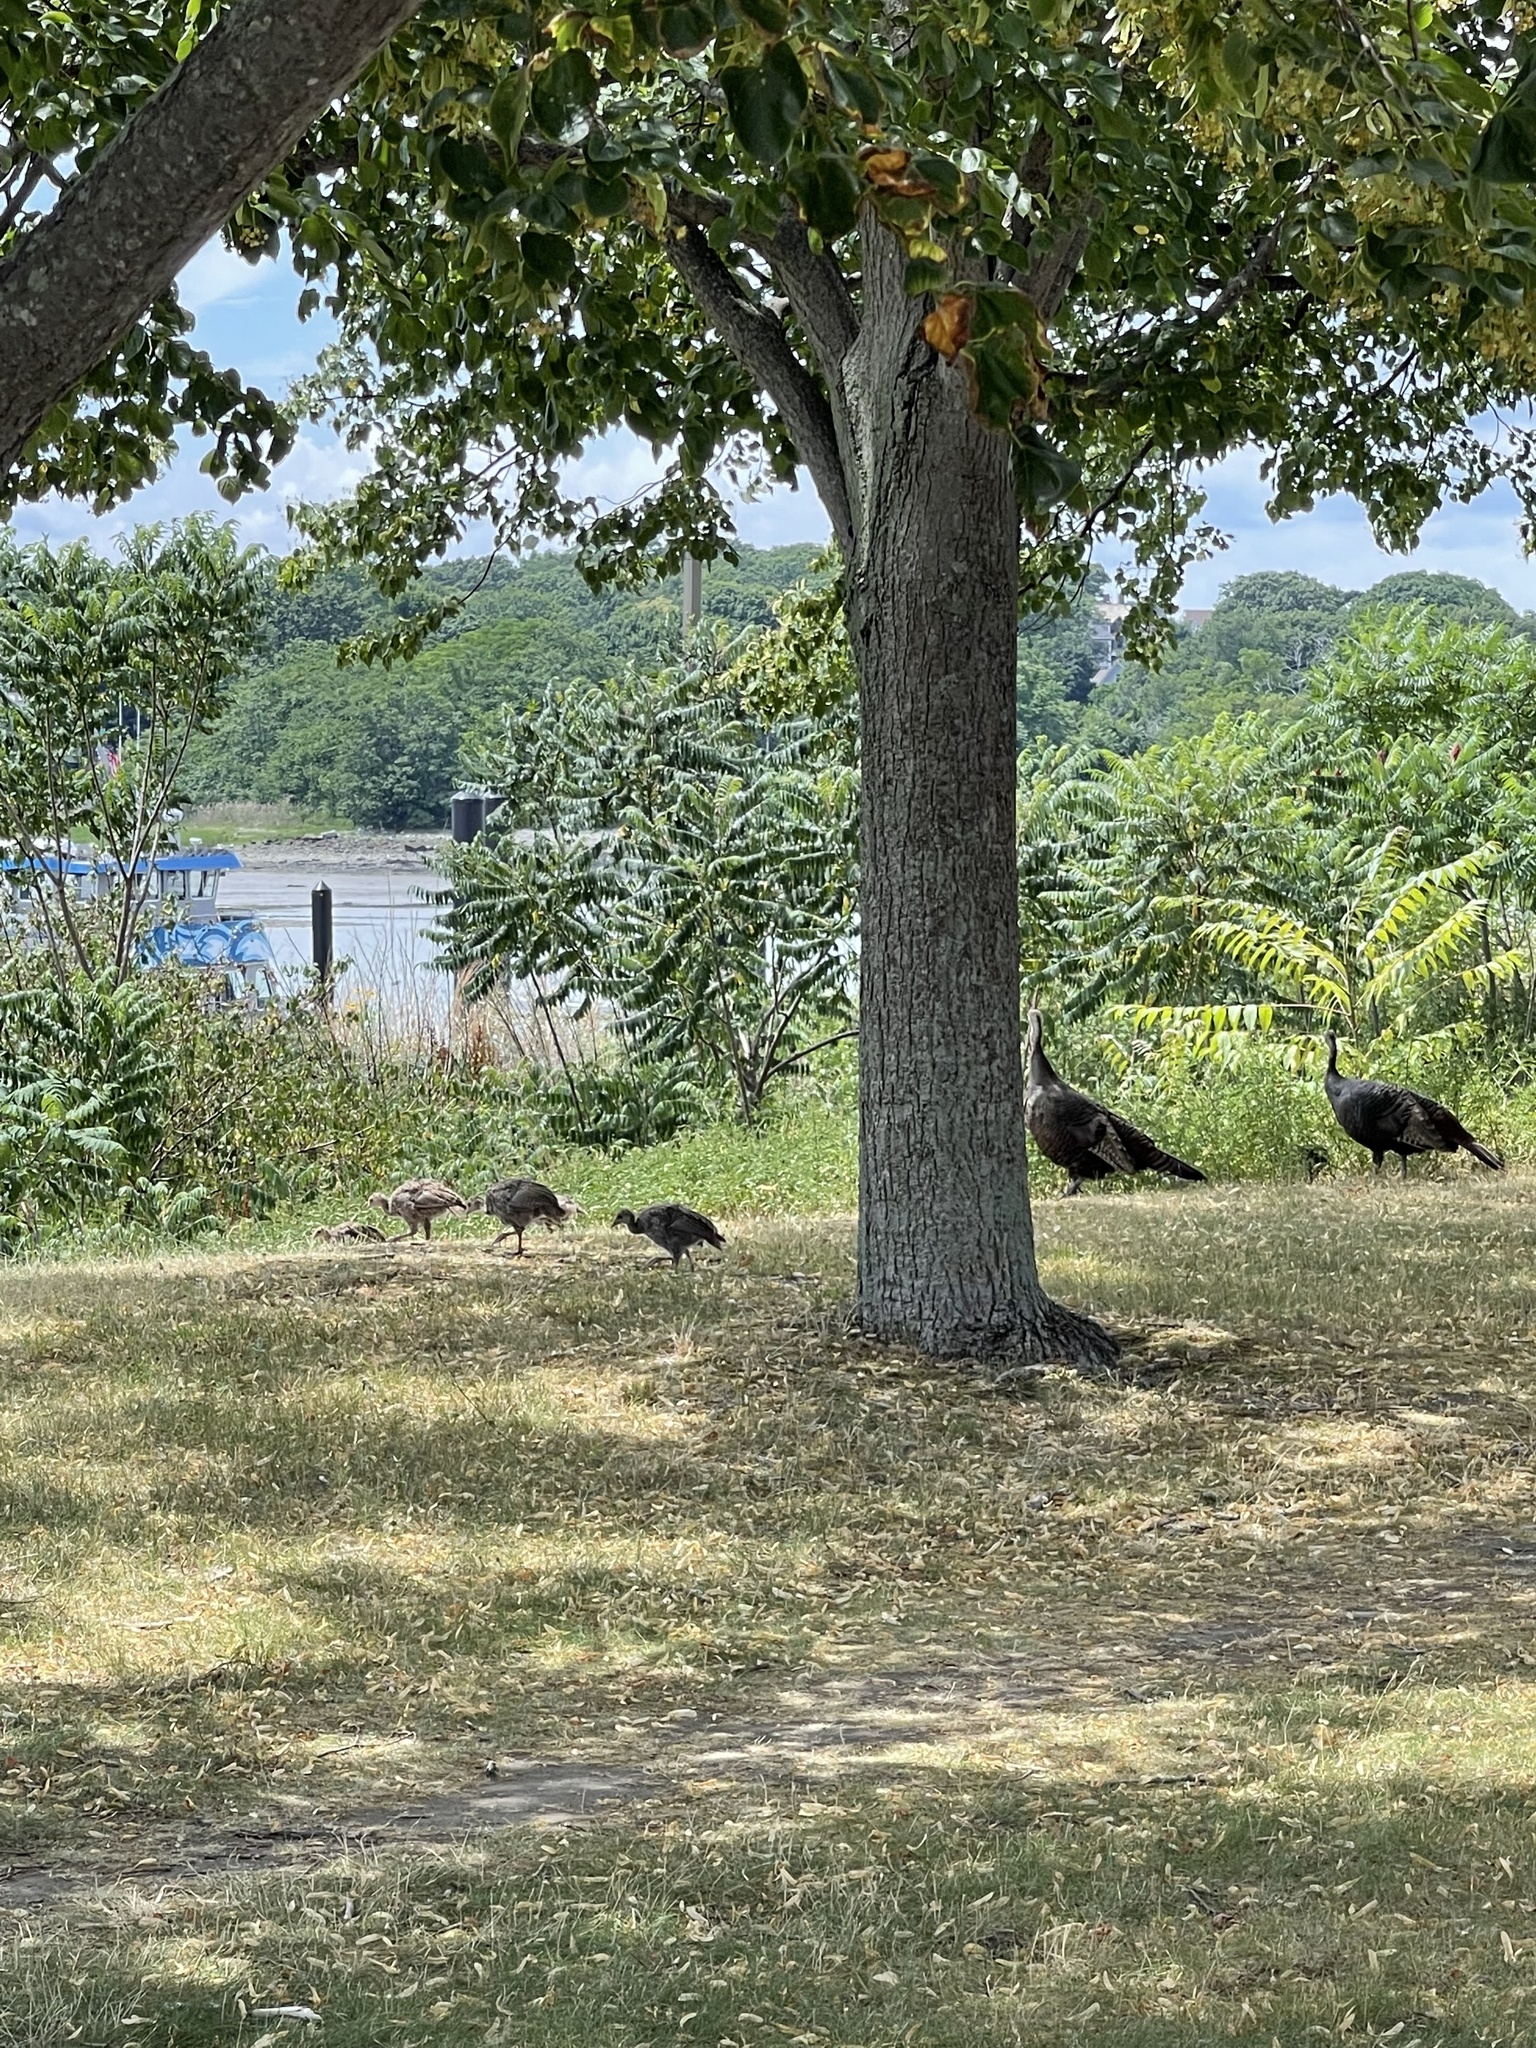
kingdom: Animalia
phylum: Chordata
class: Aves
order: Galliformes
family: Phasianidae
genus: Meleagris
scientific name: Meleagris gallopavo
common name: Wild turkey
